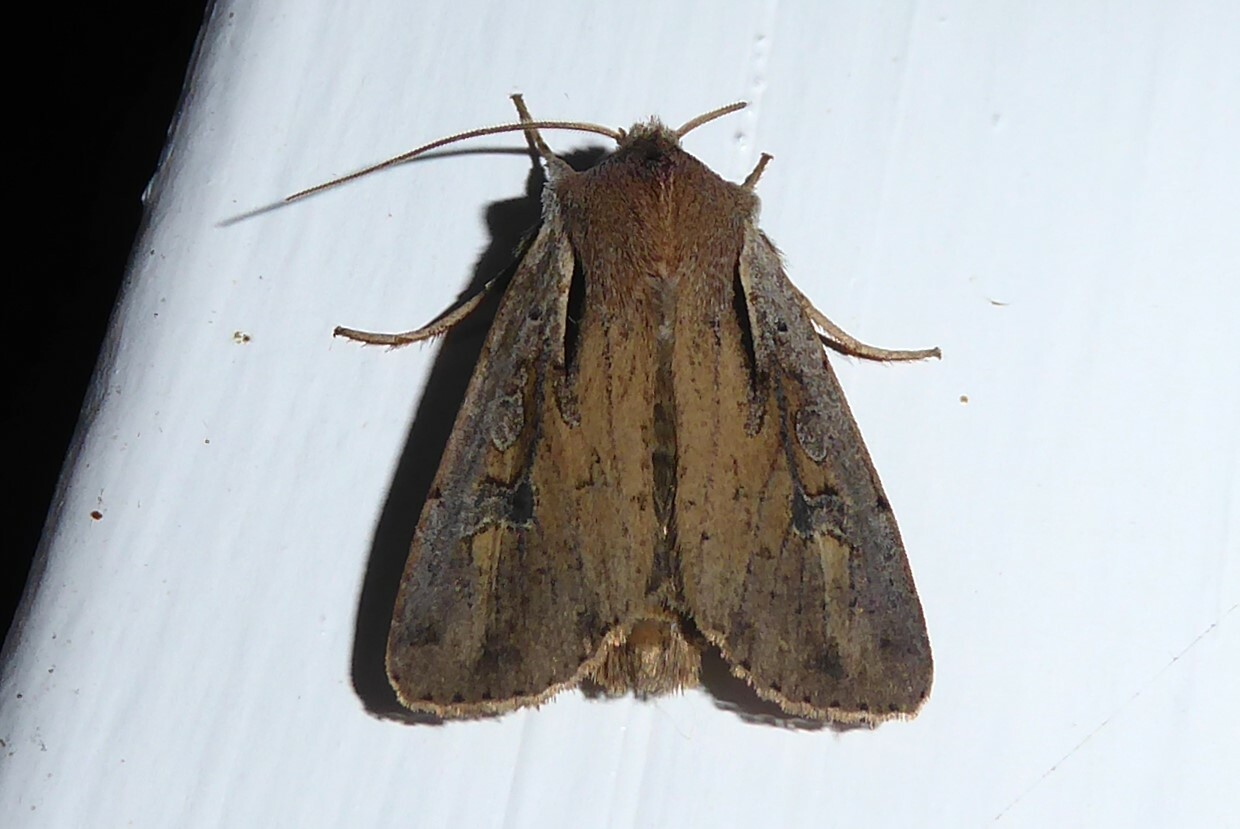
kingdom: Animalia
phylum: Arthropoda
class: Insecta
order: Lepidoptera
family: Noctuidae
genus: Ichneutica
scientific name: Ichneutica atristriga
